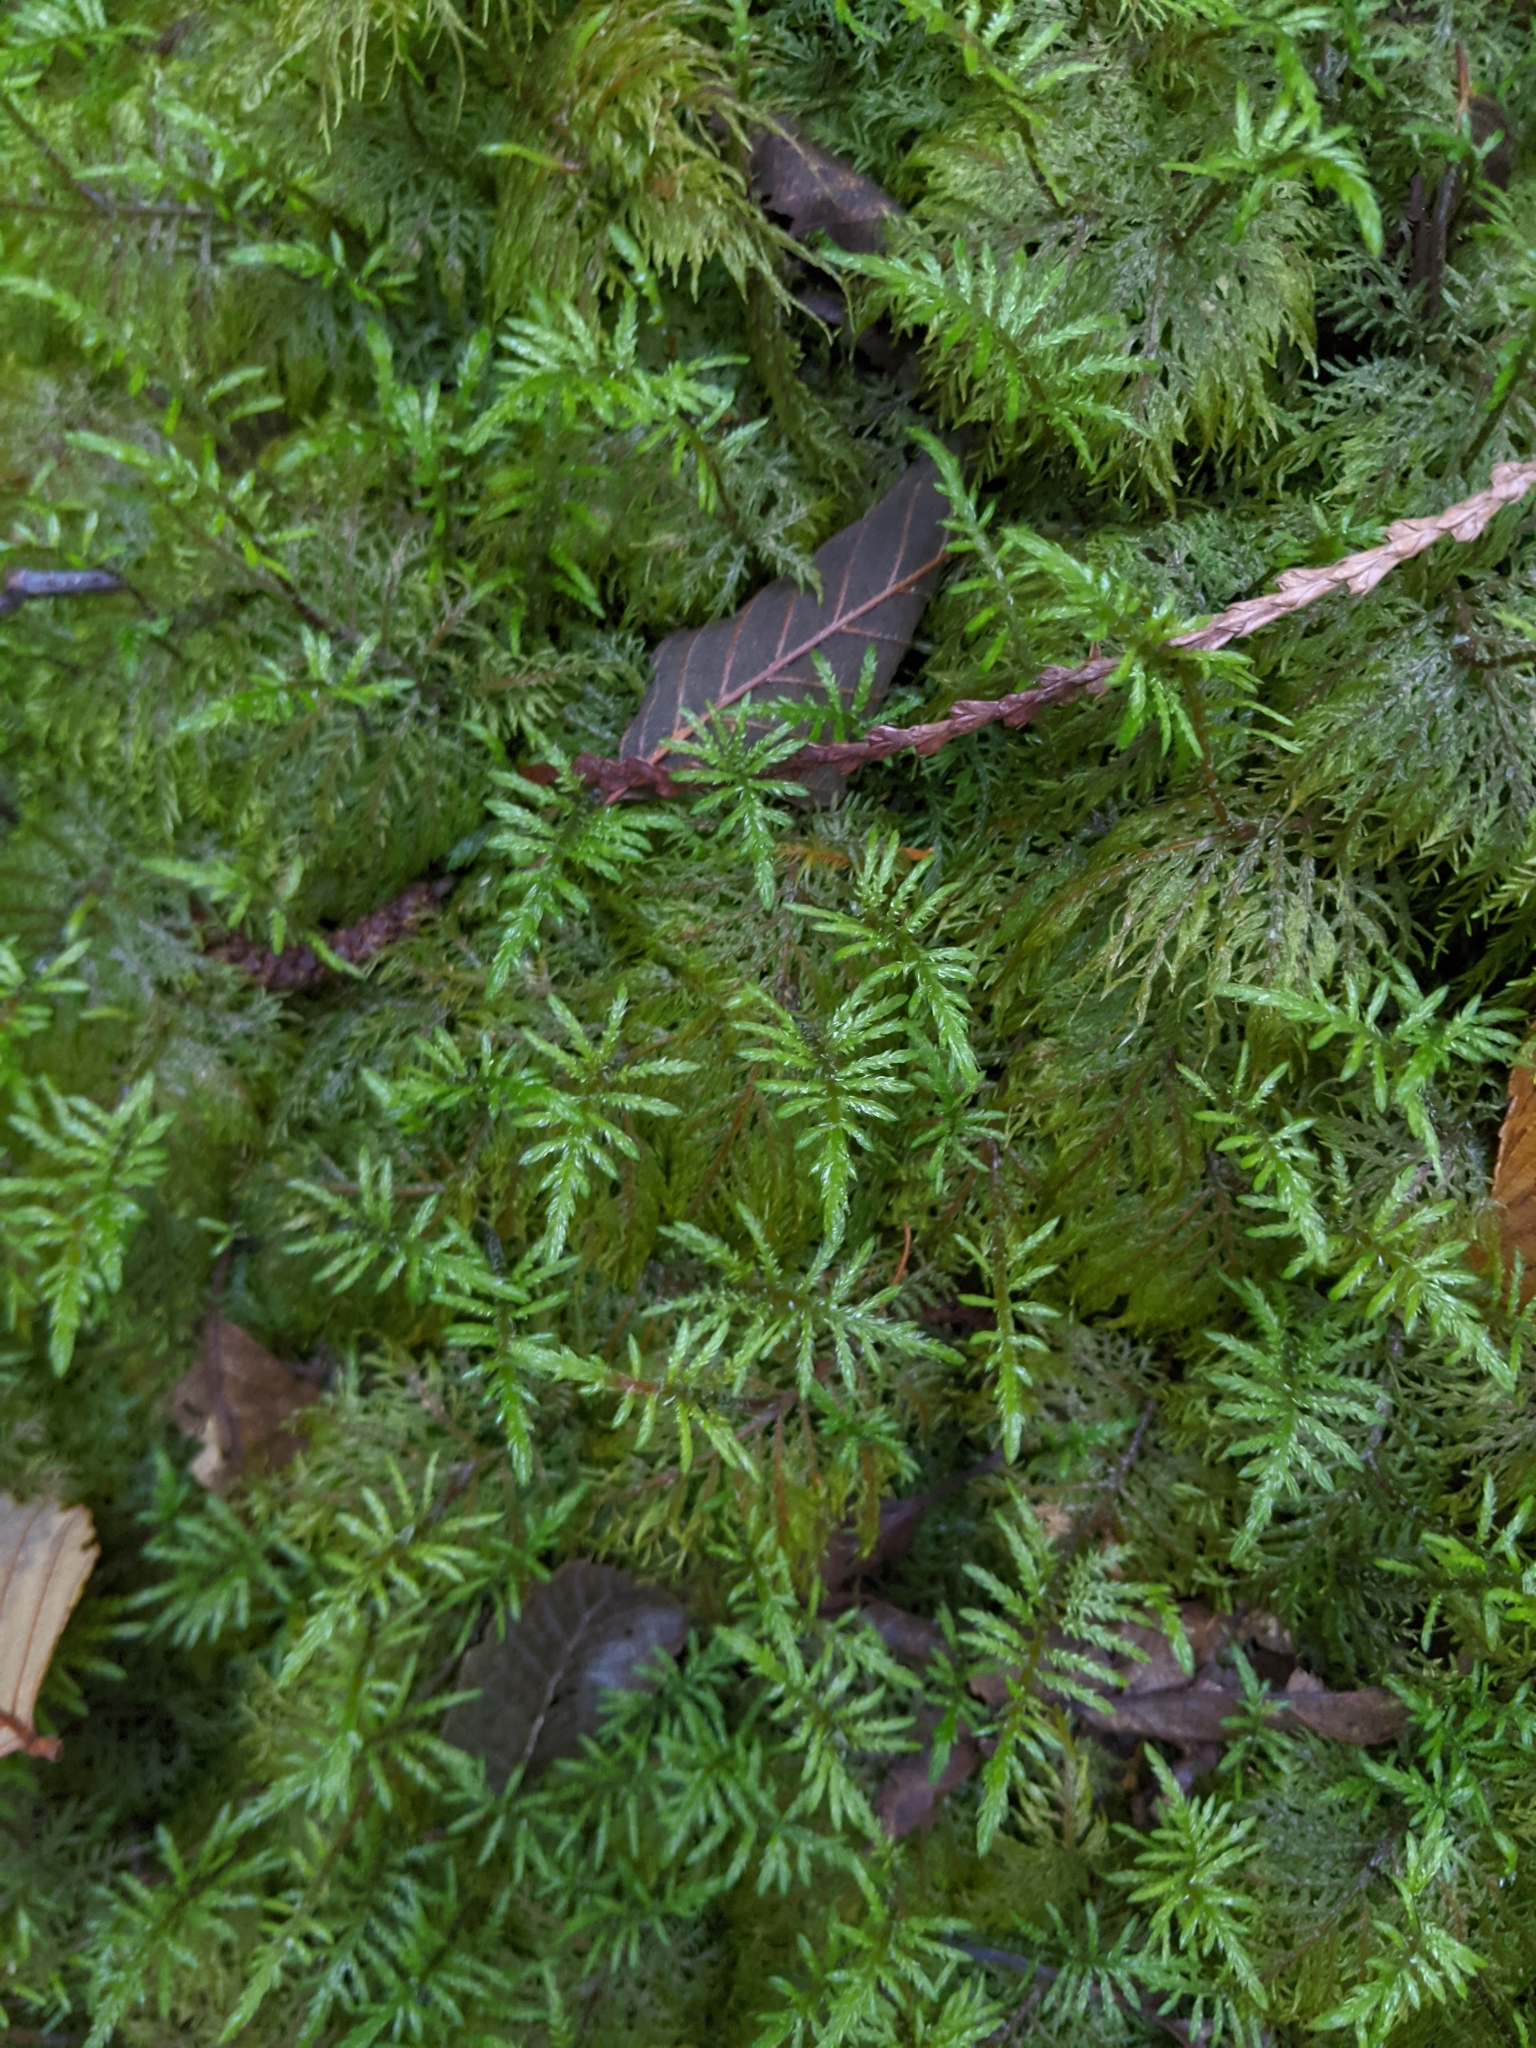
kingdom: Plantae
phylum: Bryophyta
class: Bryopsida
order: Hypnales
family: Hylocomiaceae
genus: Hylocomium
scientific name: Hylocomium splendens
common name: Stairstep moss
